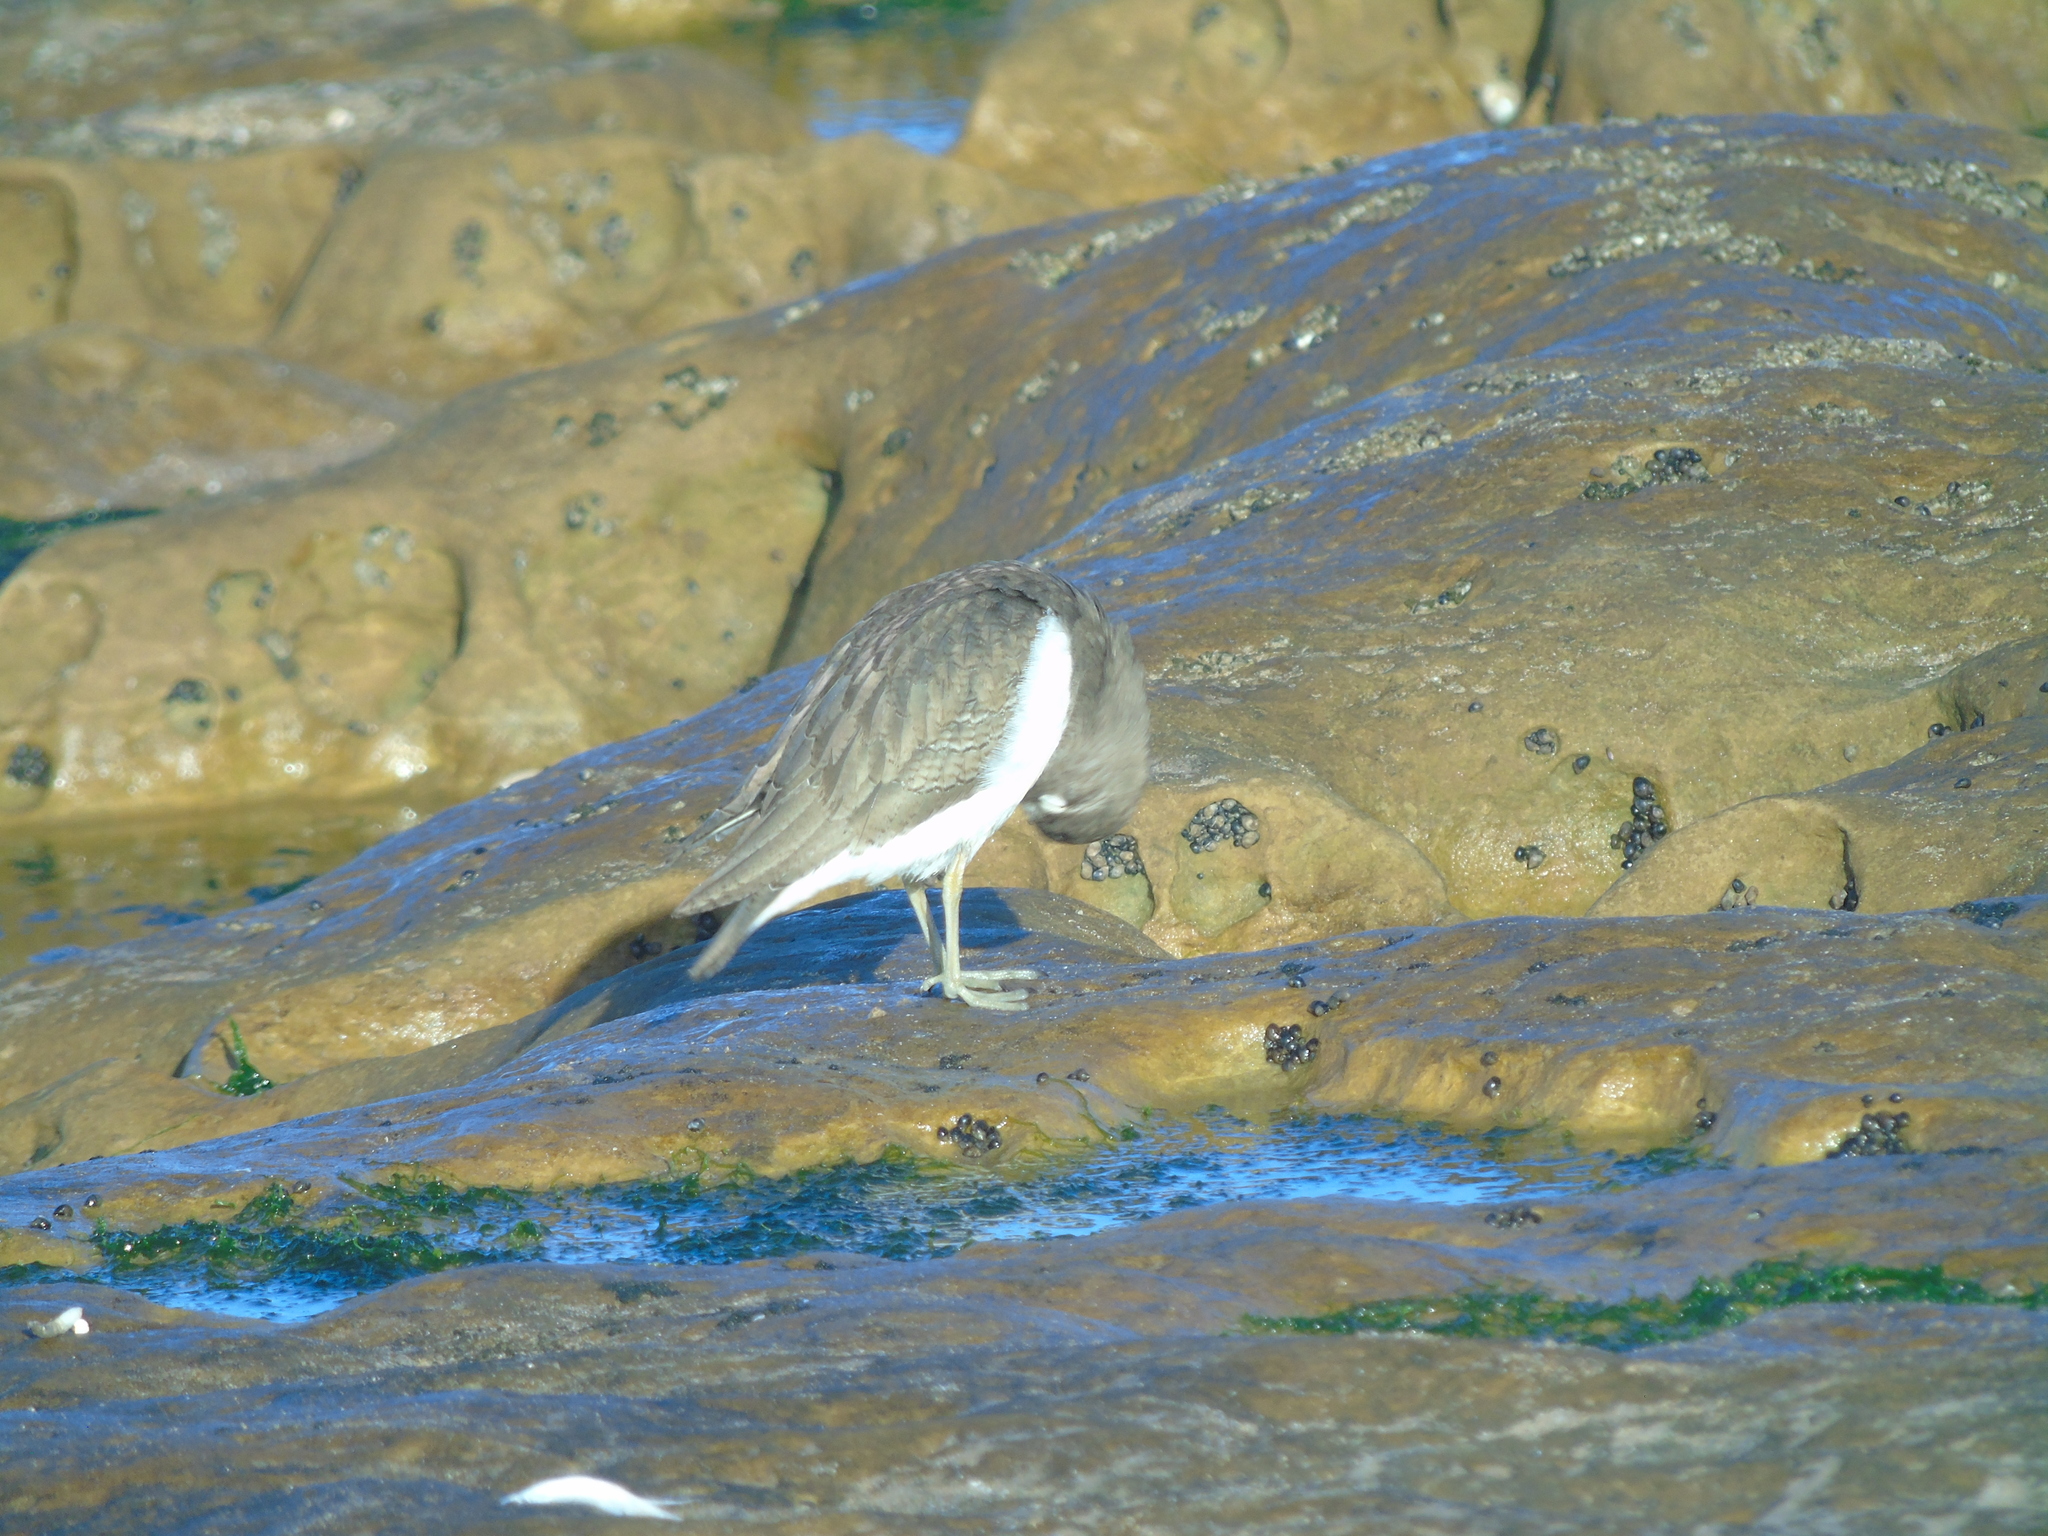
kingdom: Animalia
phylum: Chordata
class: Aves
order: Charadriiformes
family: Scolopacidae
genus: Actitis
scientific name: Actitis hypoleucos
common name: Common sandpiper
